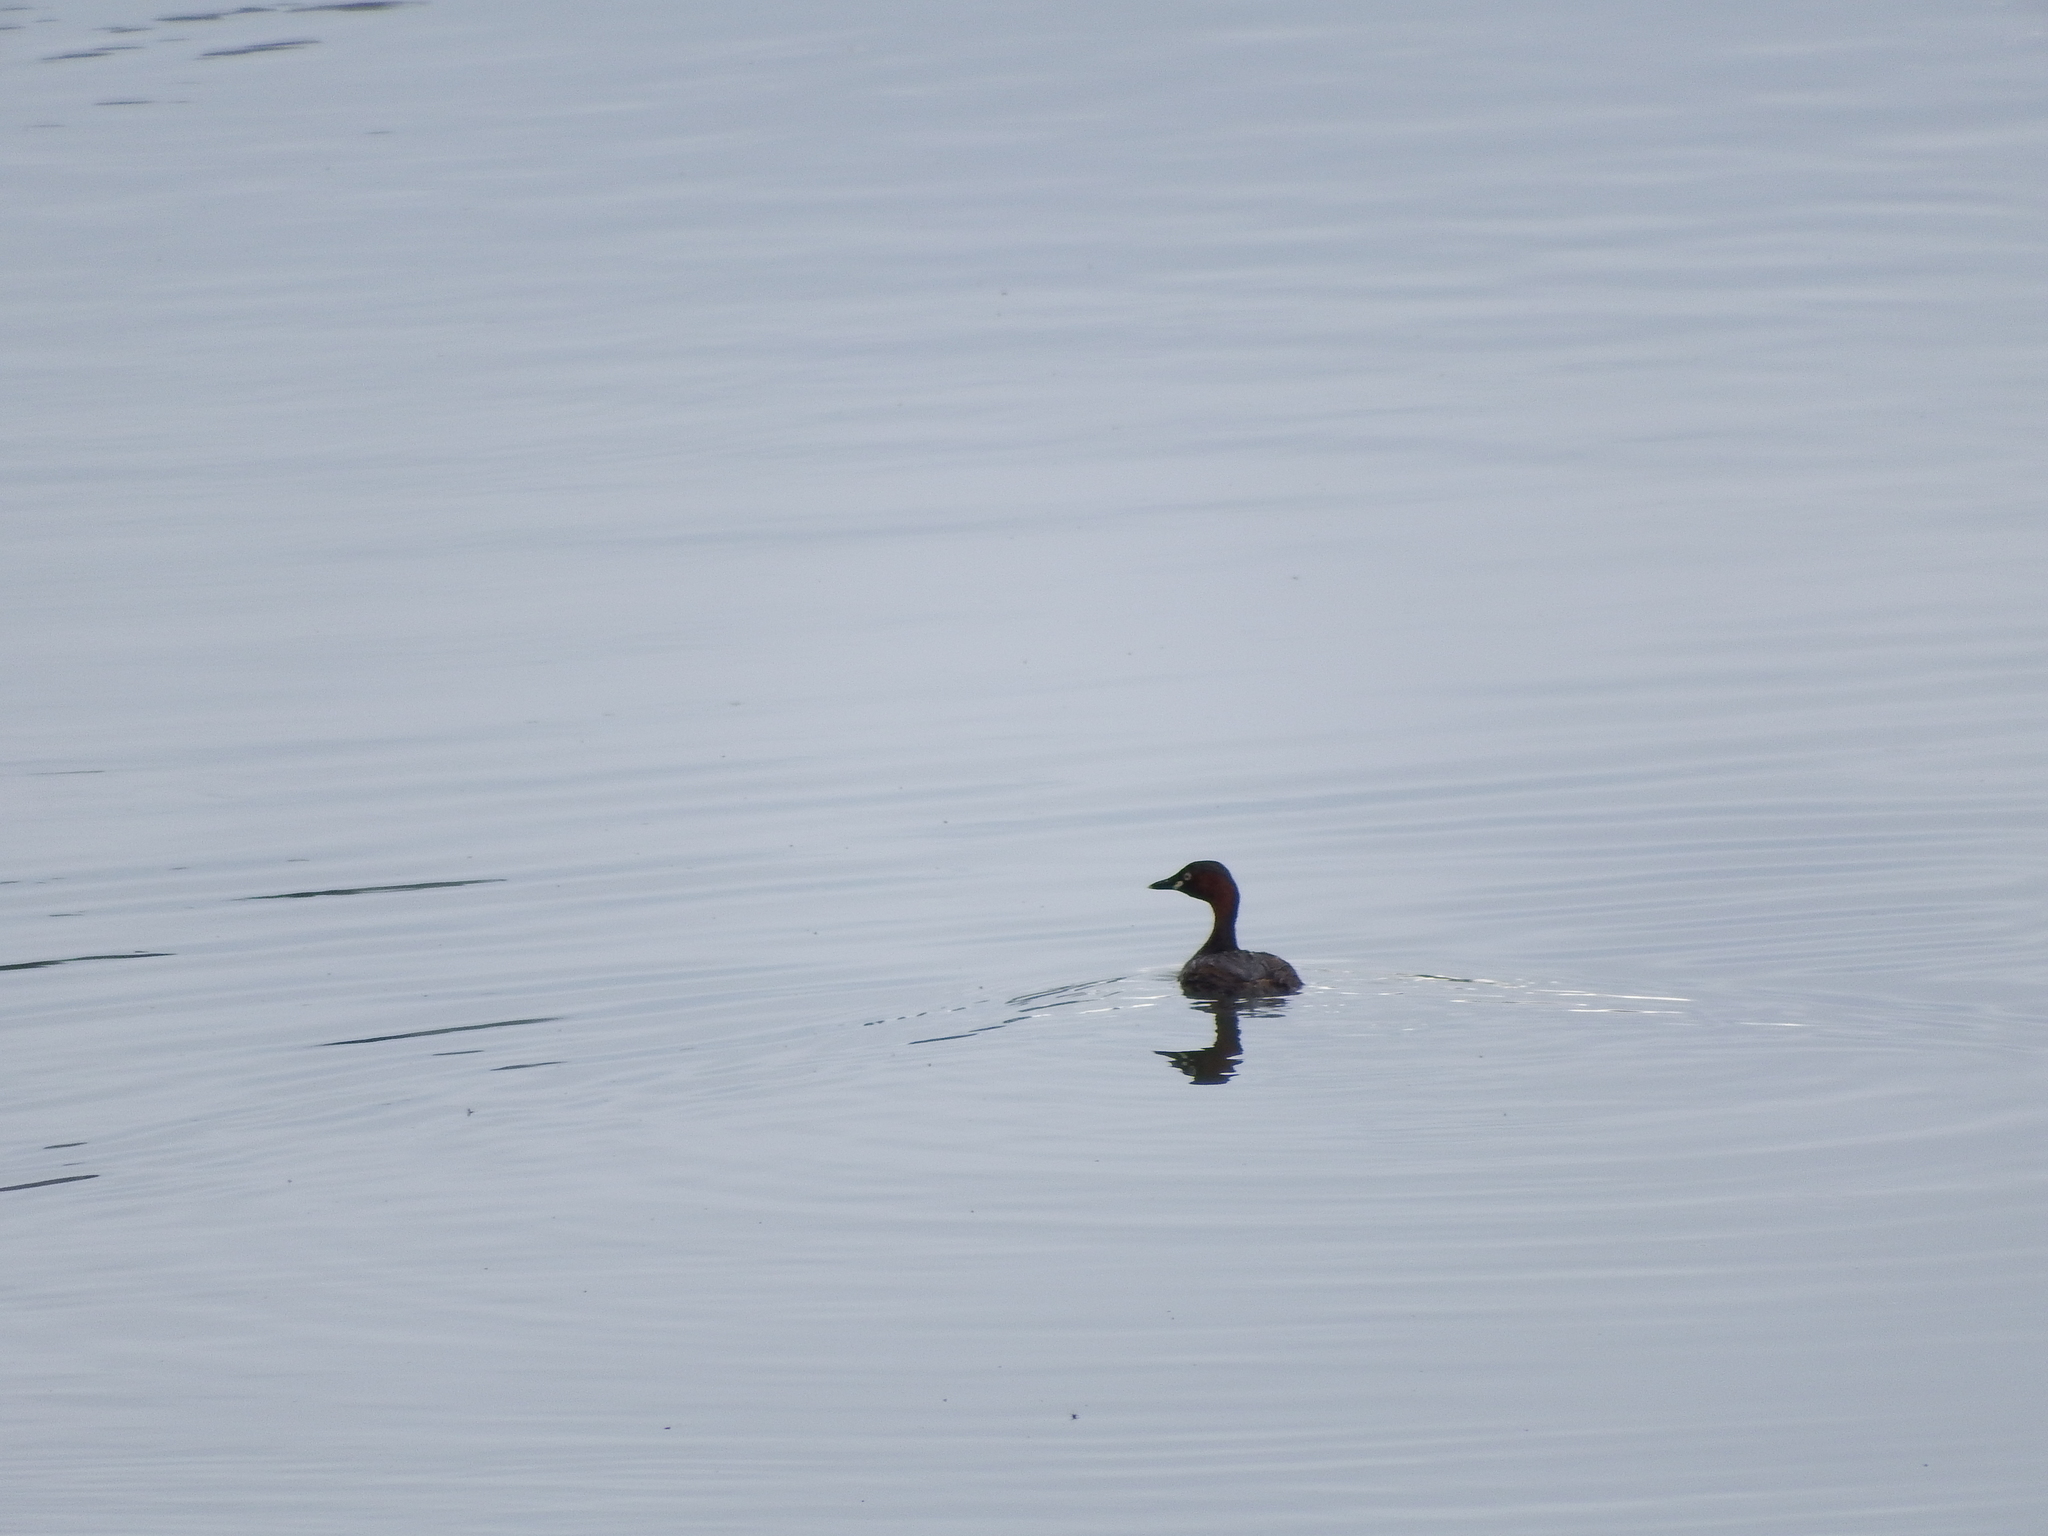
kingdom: Animalia
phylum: Chordata
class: Aves
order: Podicipediformes
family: Podicipedidae
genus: Tachybaptus
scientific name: Tachybaptus ruficollis
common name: Little grebe
